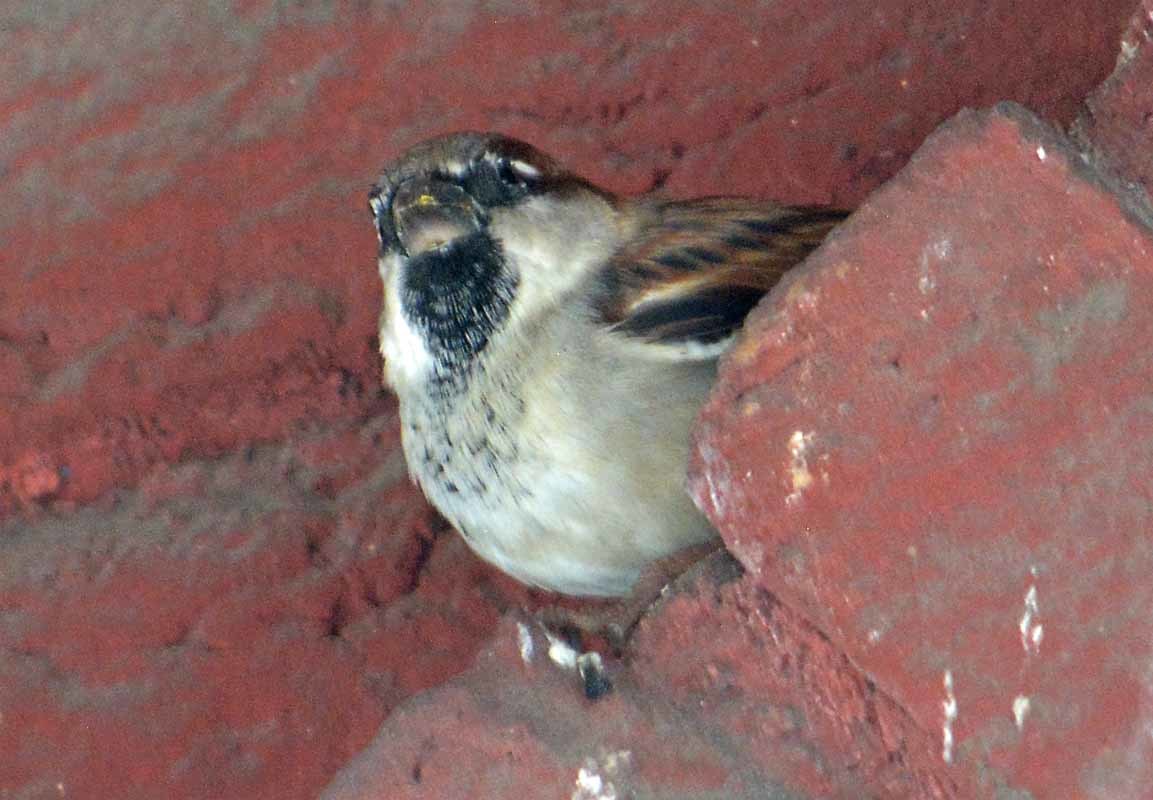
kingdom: Animalia
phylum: Chordata
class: Aves
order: Passeriformes
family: Passeridae
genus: Passer
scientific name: Passer domesticus
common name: House sparrow
